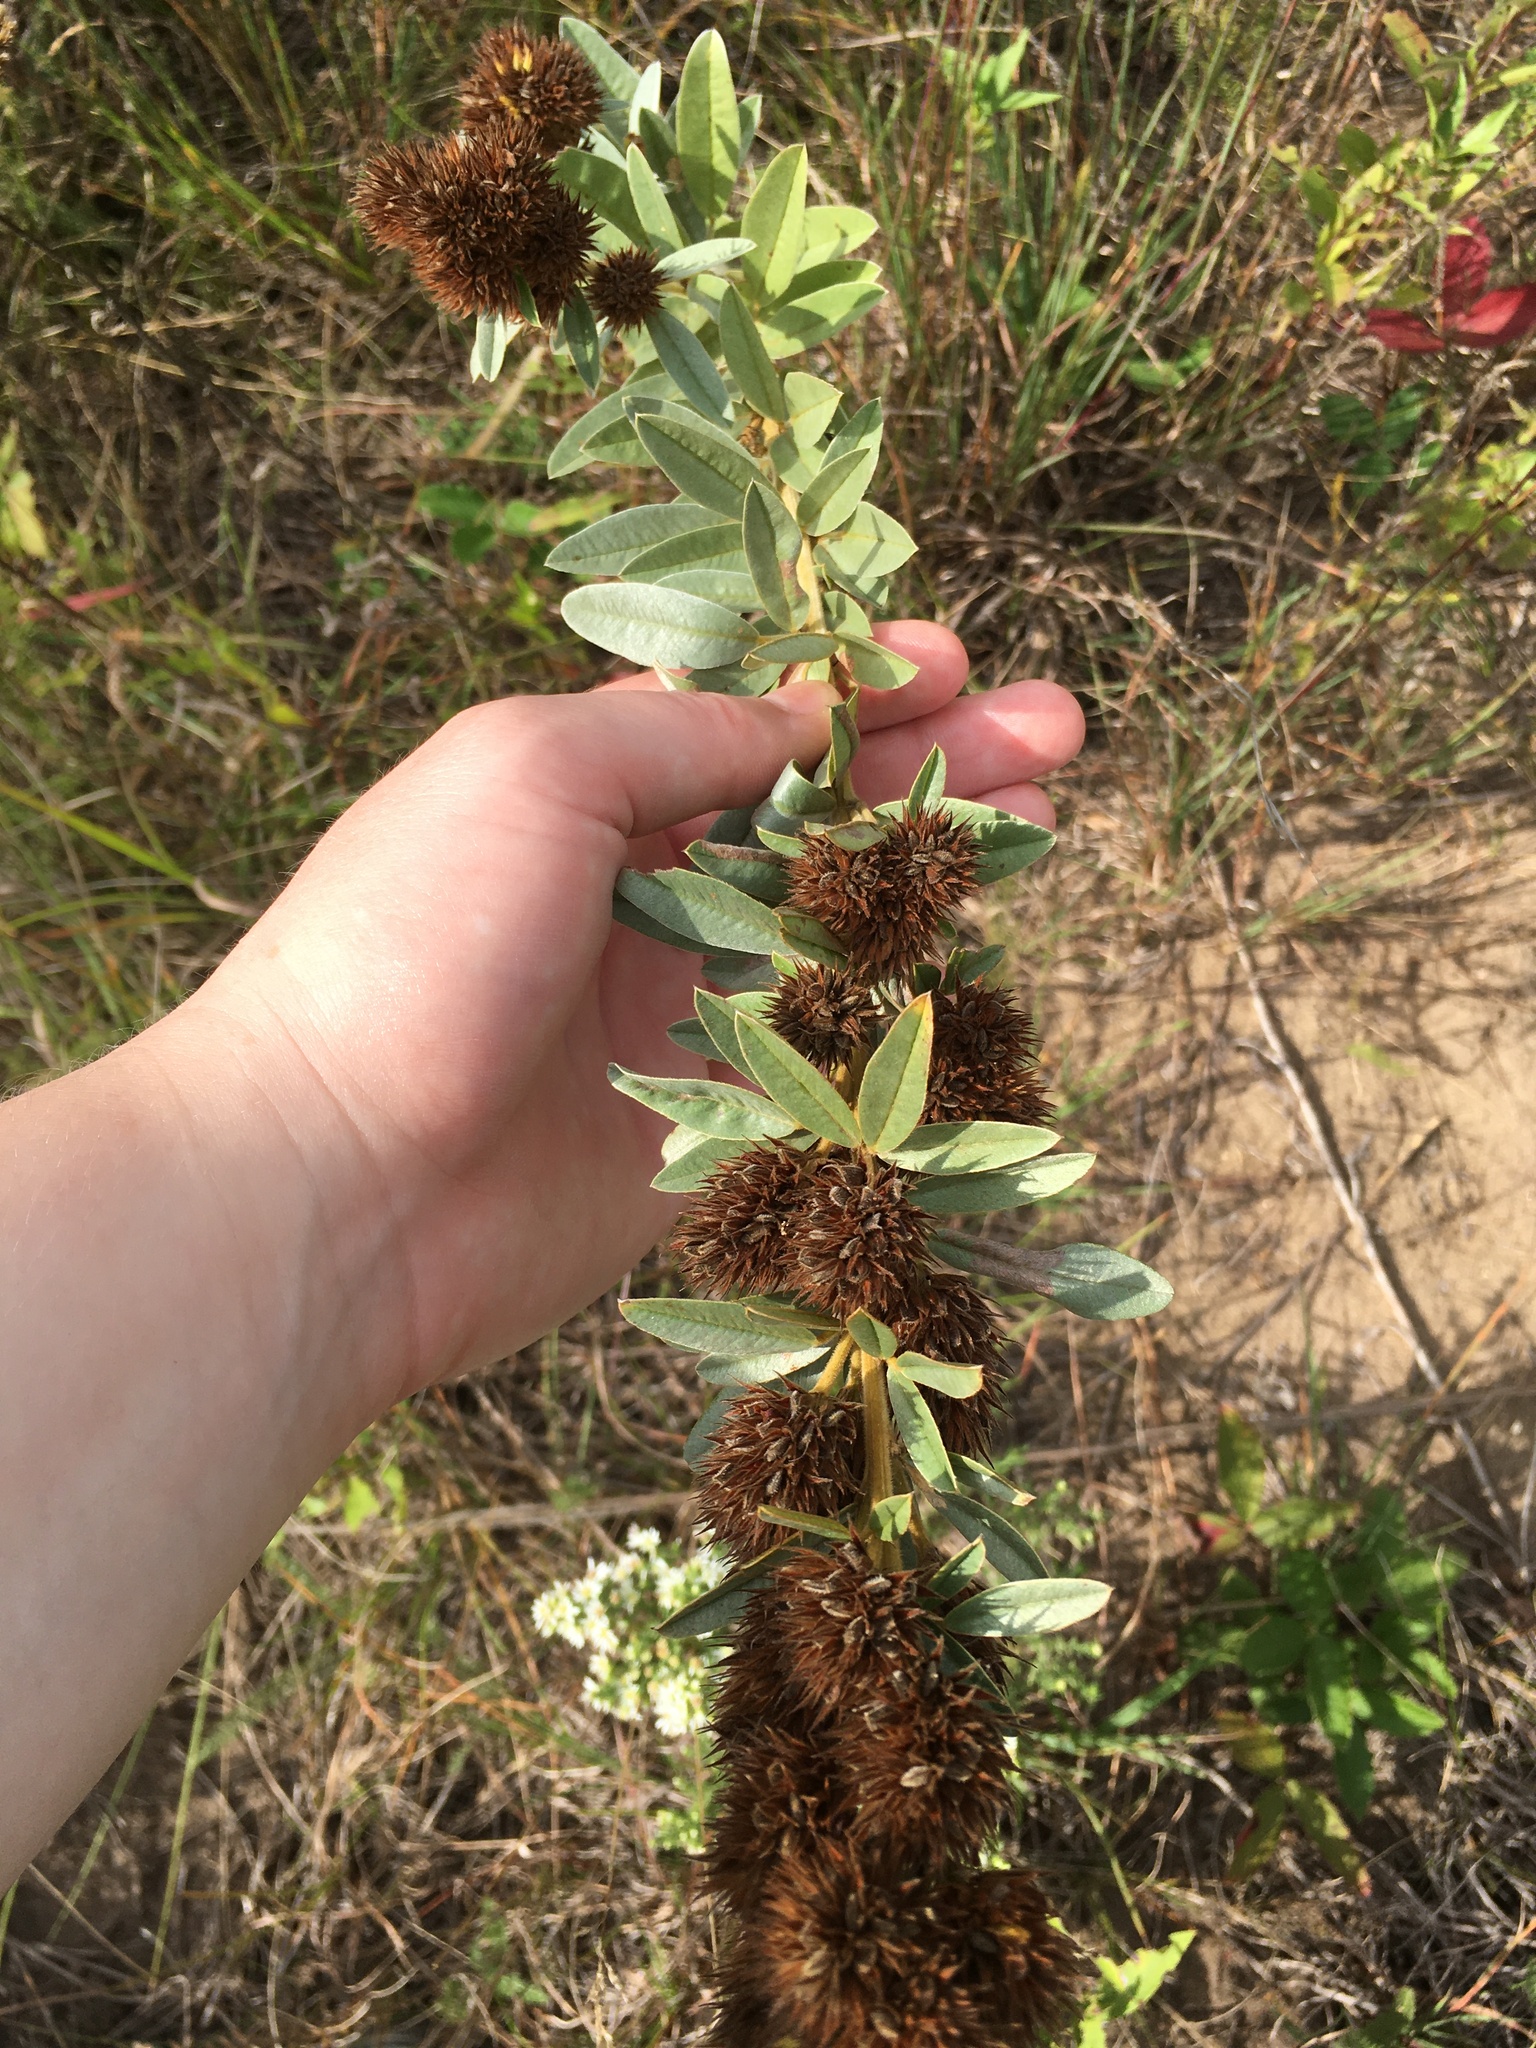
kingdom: Plantae
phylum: Tracheophyta
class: Magnoliopsida
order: Fabales
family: Fabaceae
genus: Lespedeza
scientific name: Lespedeza capitata
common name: Dusty clover
